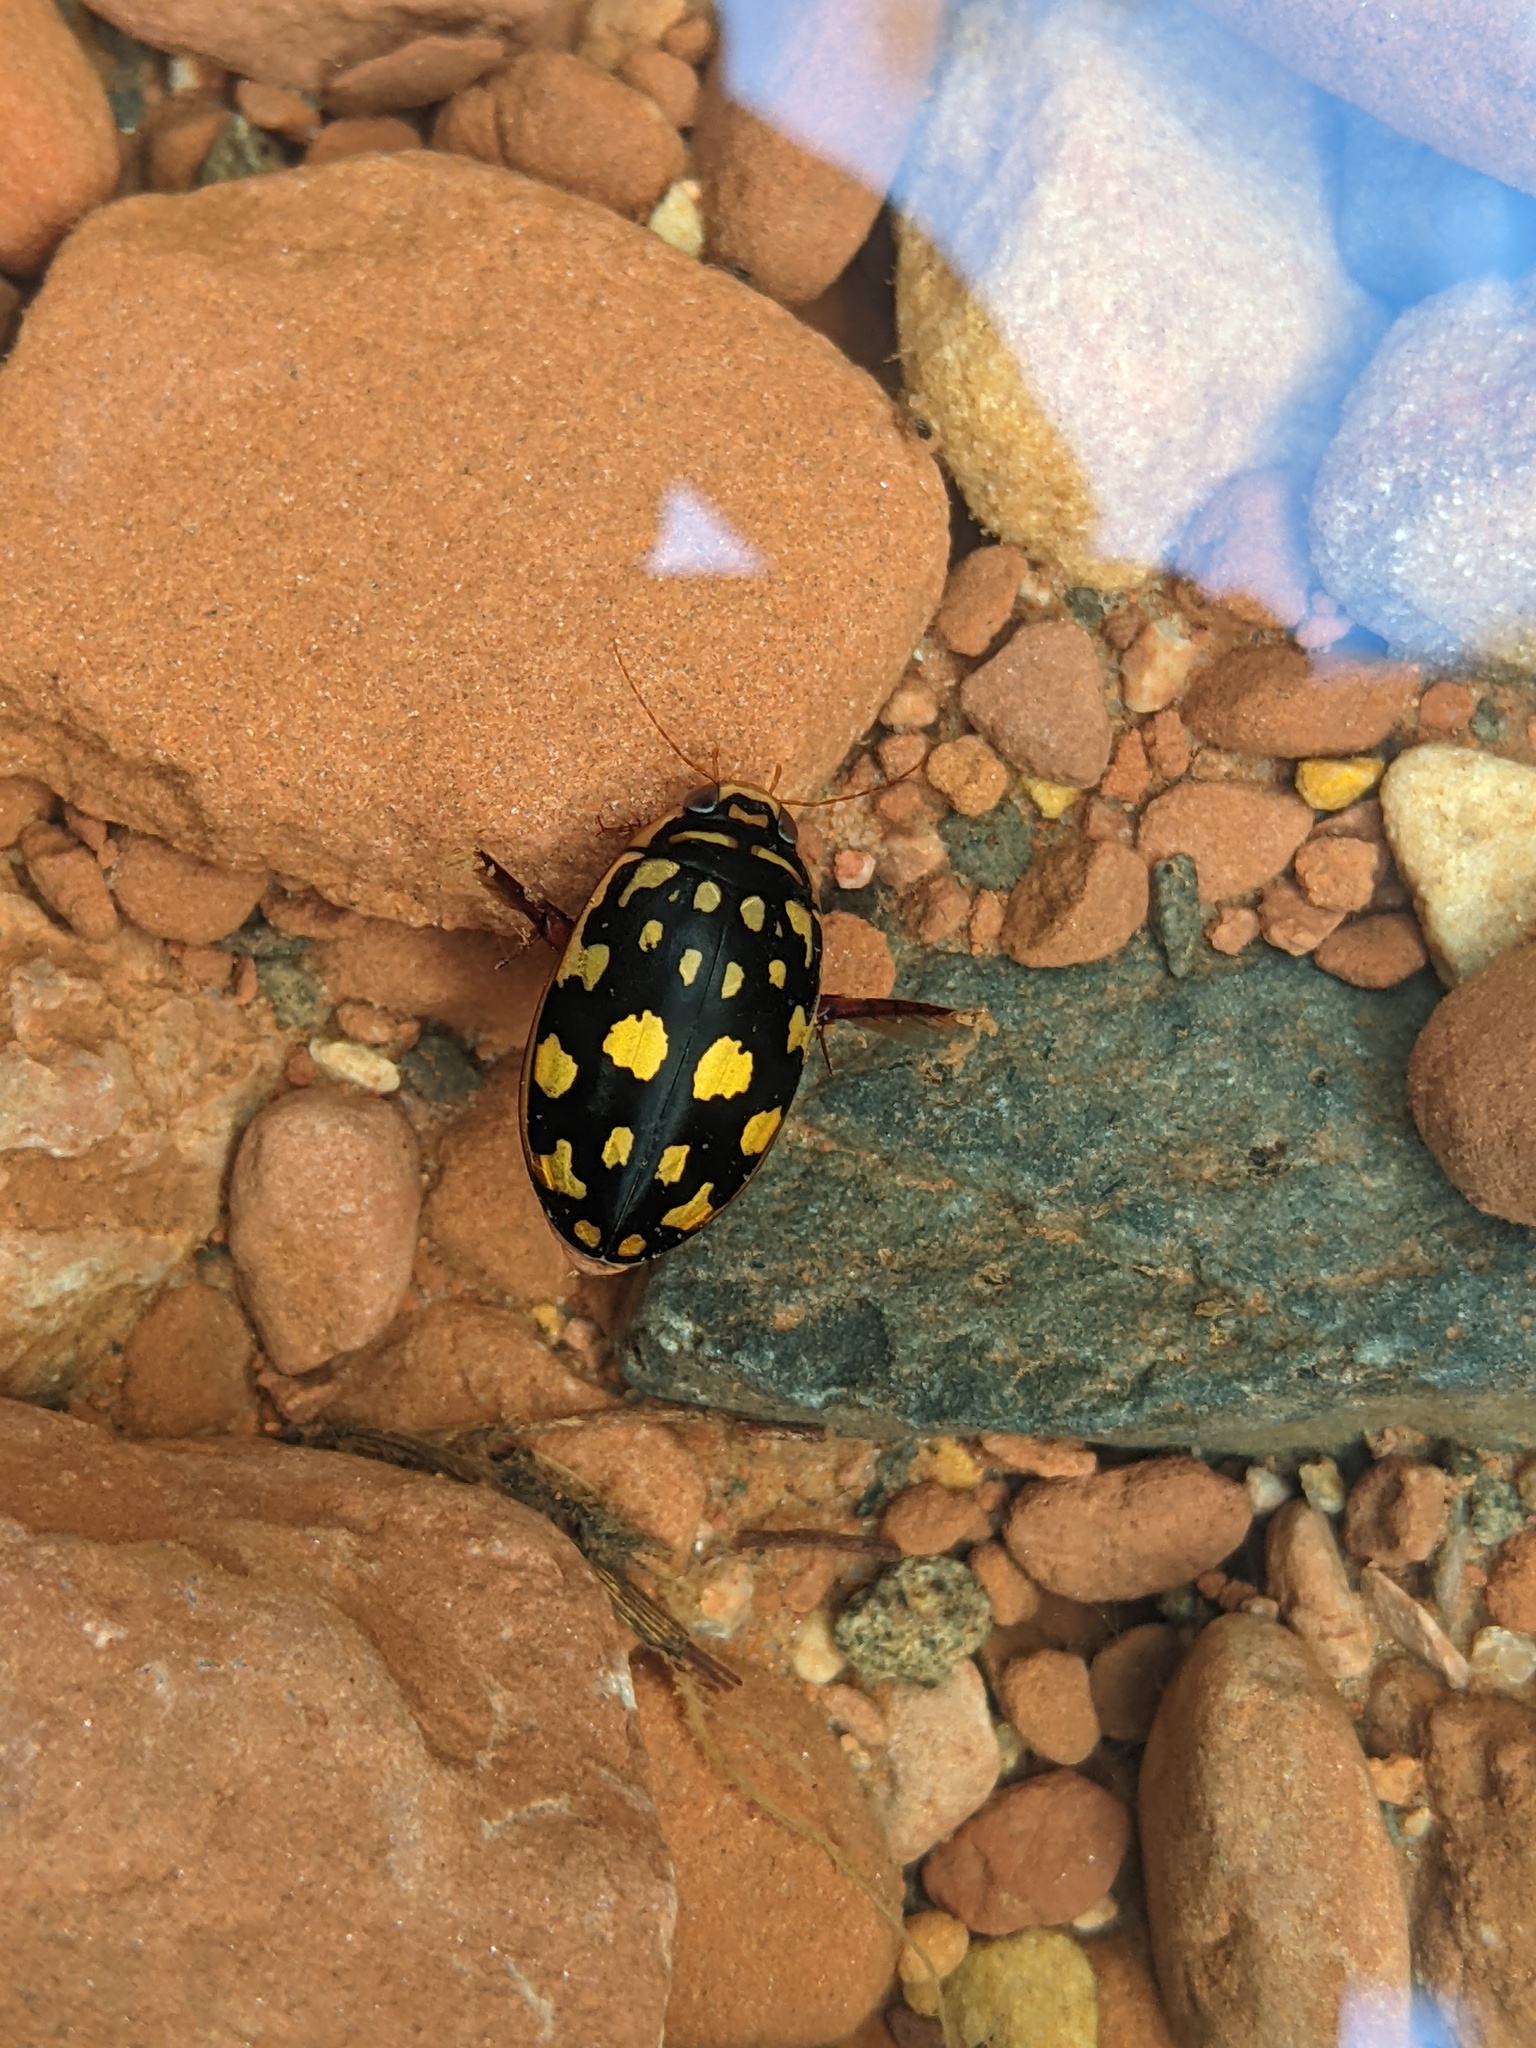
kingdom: Animalia
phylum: Arthropoda
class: Insecta
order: Coleoptera
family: Dytiscidae
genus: Thermonectus
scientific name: Thermonectus marmoratus
